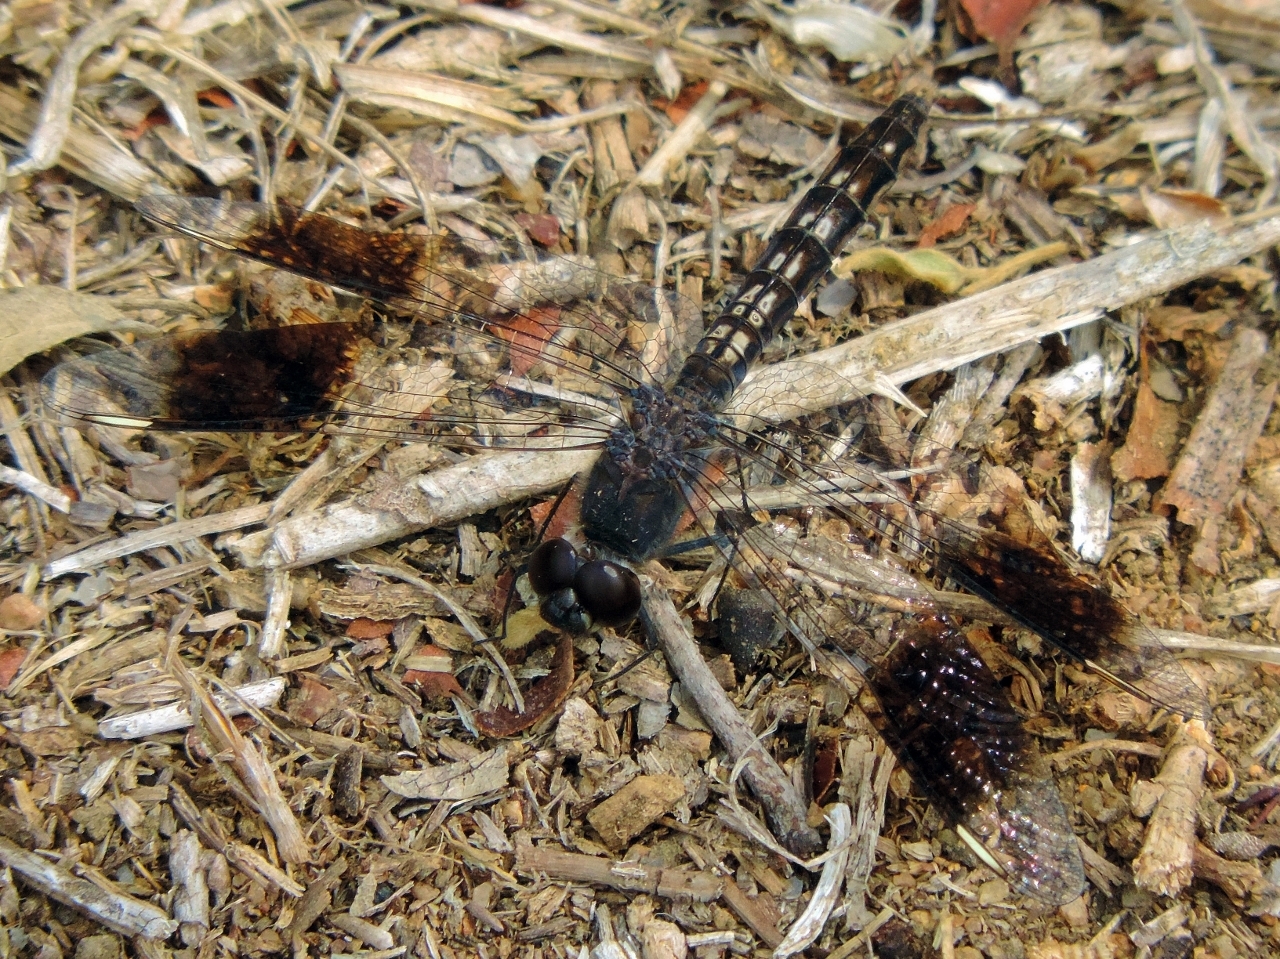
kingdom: Animalia
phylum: Arthropoda
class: Insecta
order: Odonata
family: Libellulidae
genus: Brachythemis
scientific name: Brachythemis leucosticta
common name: Banded groundling
